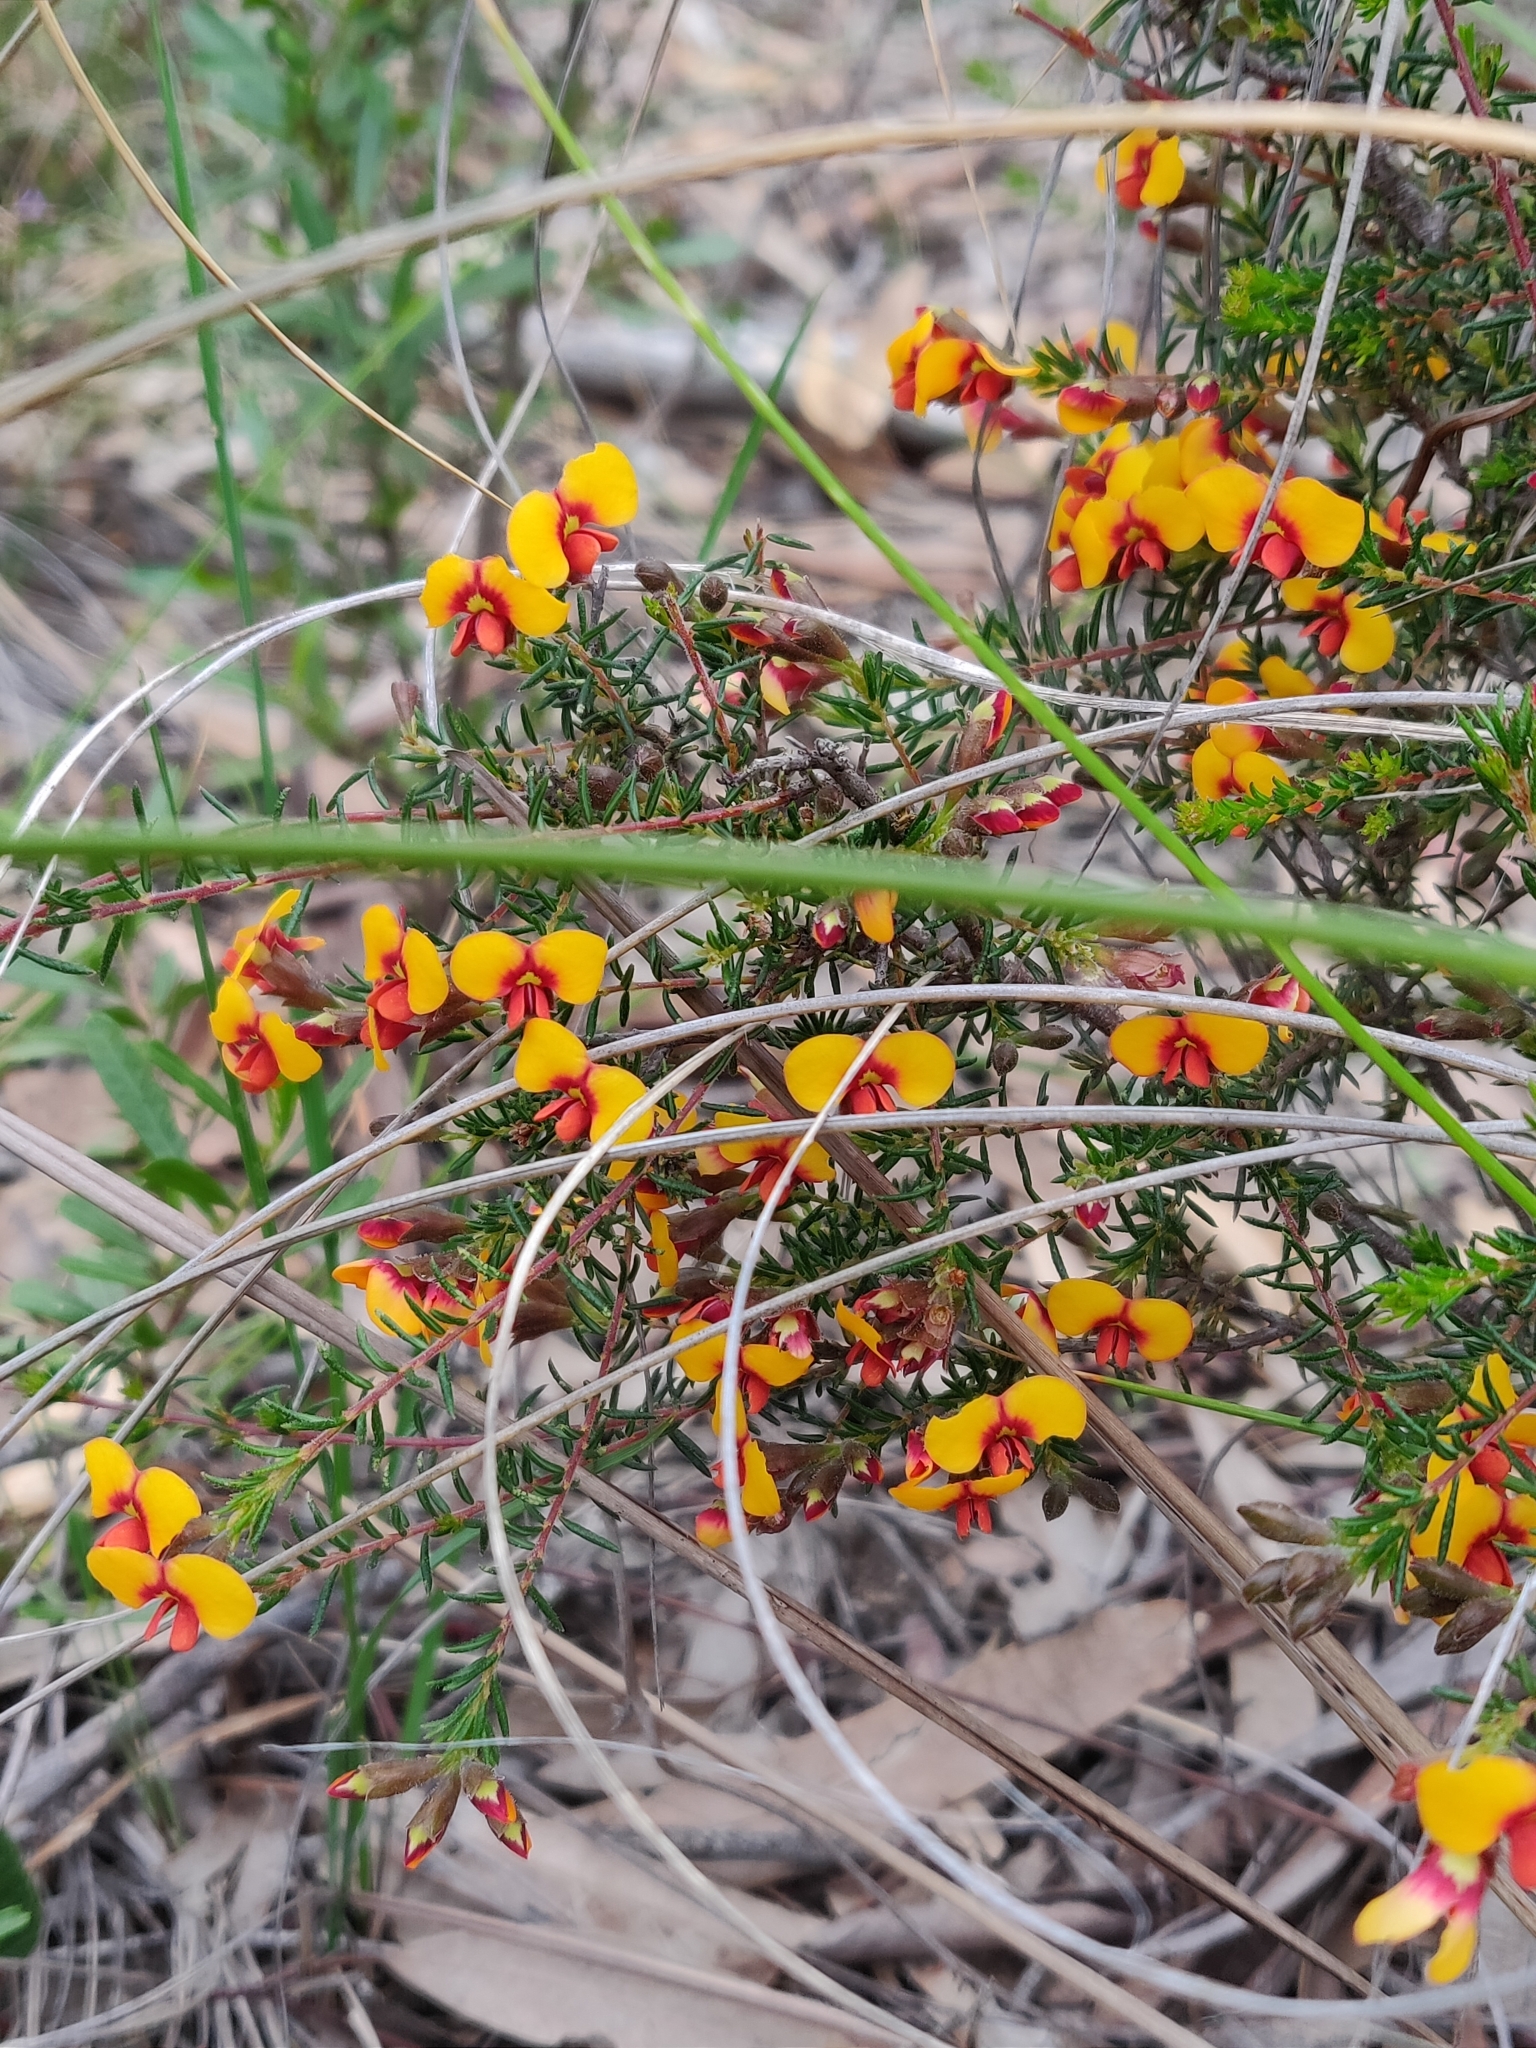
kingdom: Plantae
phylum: Tracheophyta
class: Magnoliopsida
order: Fabales
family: Fabaceae
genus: Dillwynia
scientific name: Dillwynia phylicoides
